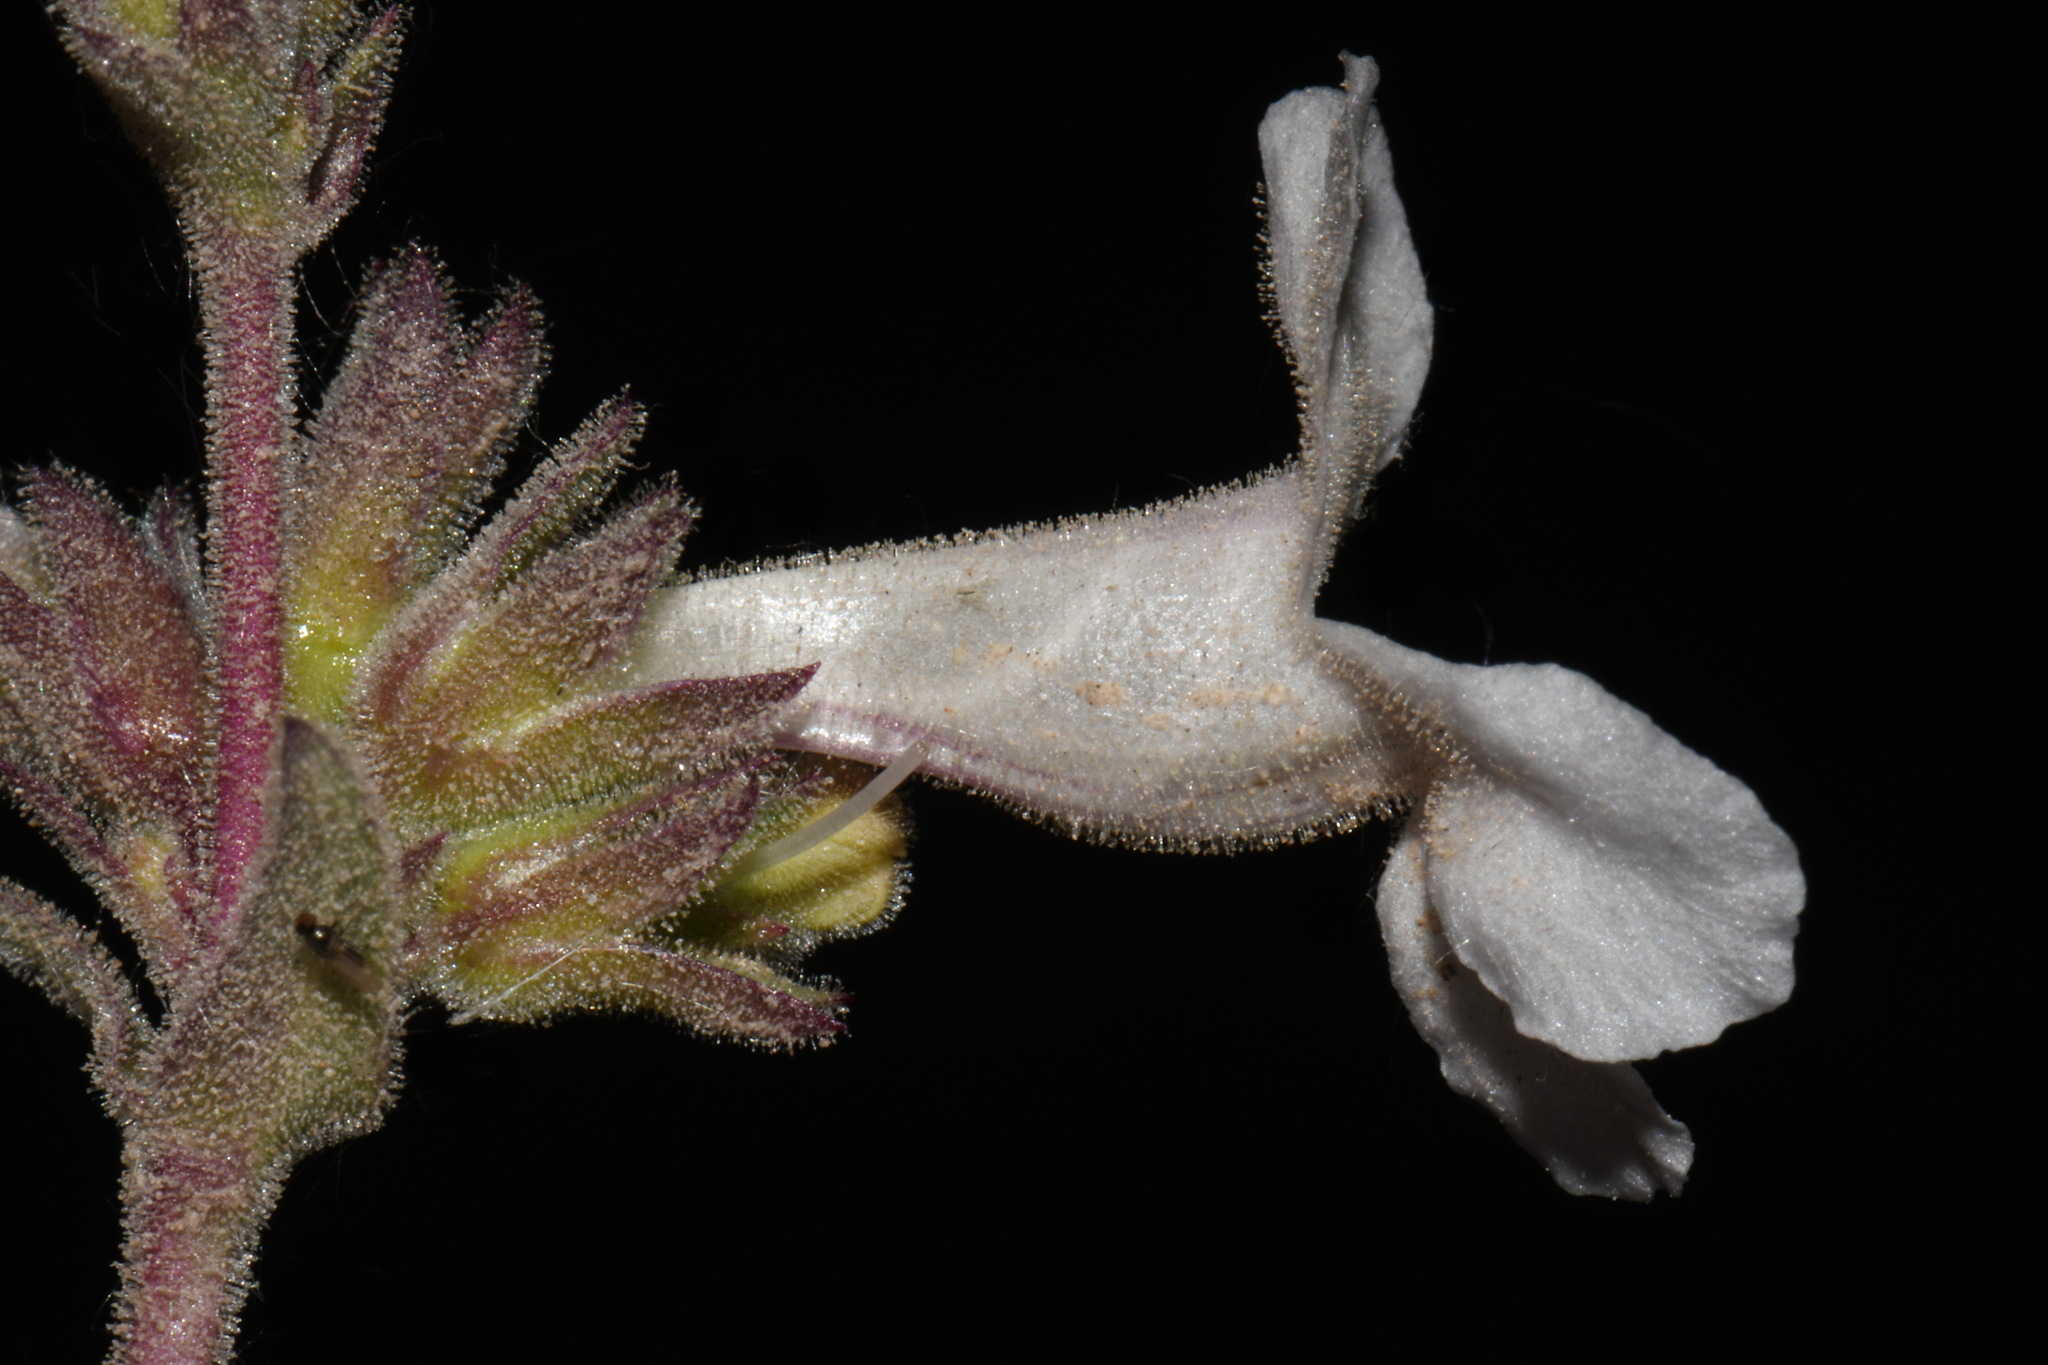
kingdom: Plantae
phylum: Tracheophyta
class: Magnoliopsida
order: Lamiales
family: Plantaginaceae
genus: Penstemon
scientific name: Penstemon albidus
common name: White beardtongue
